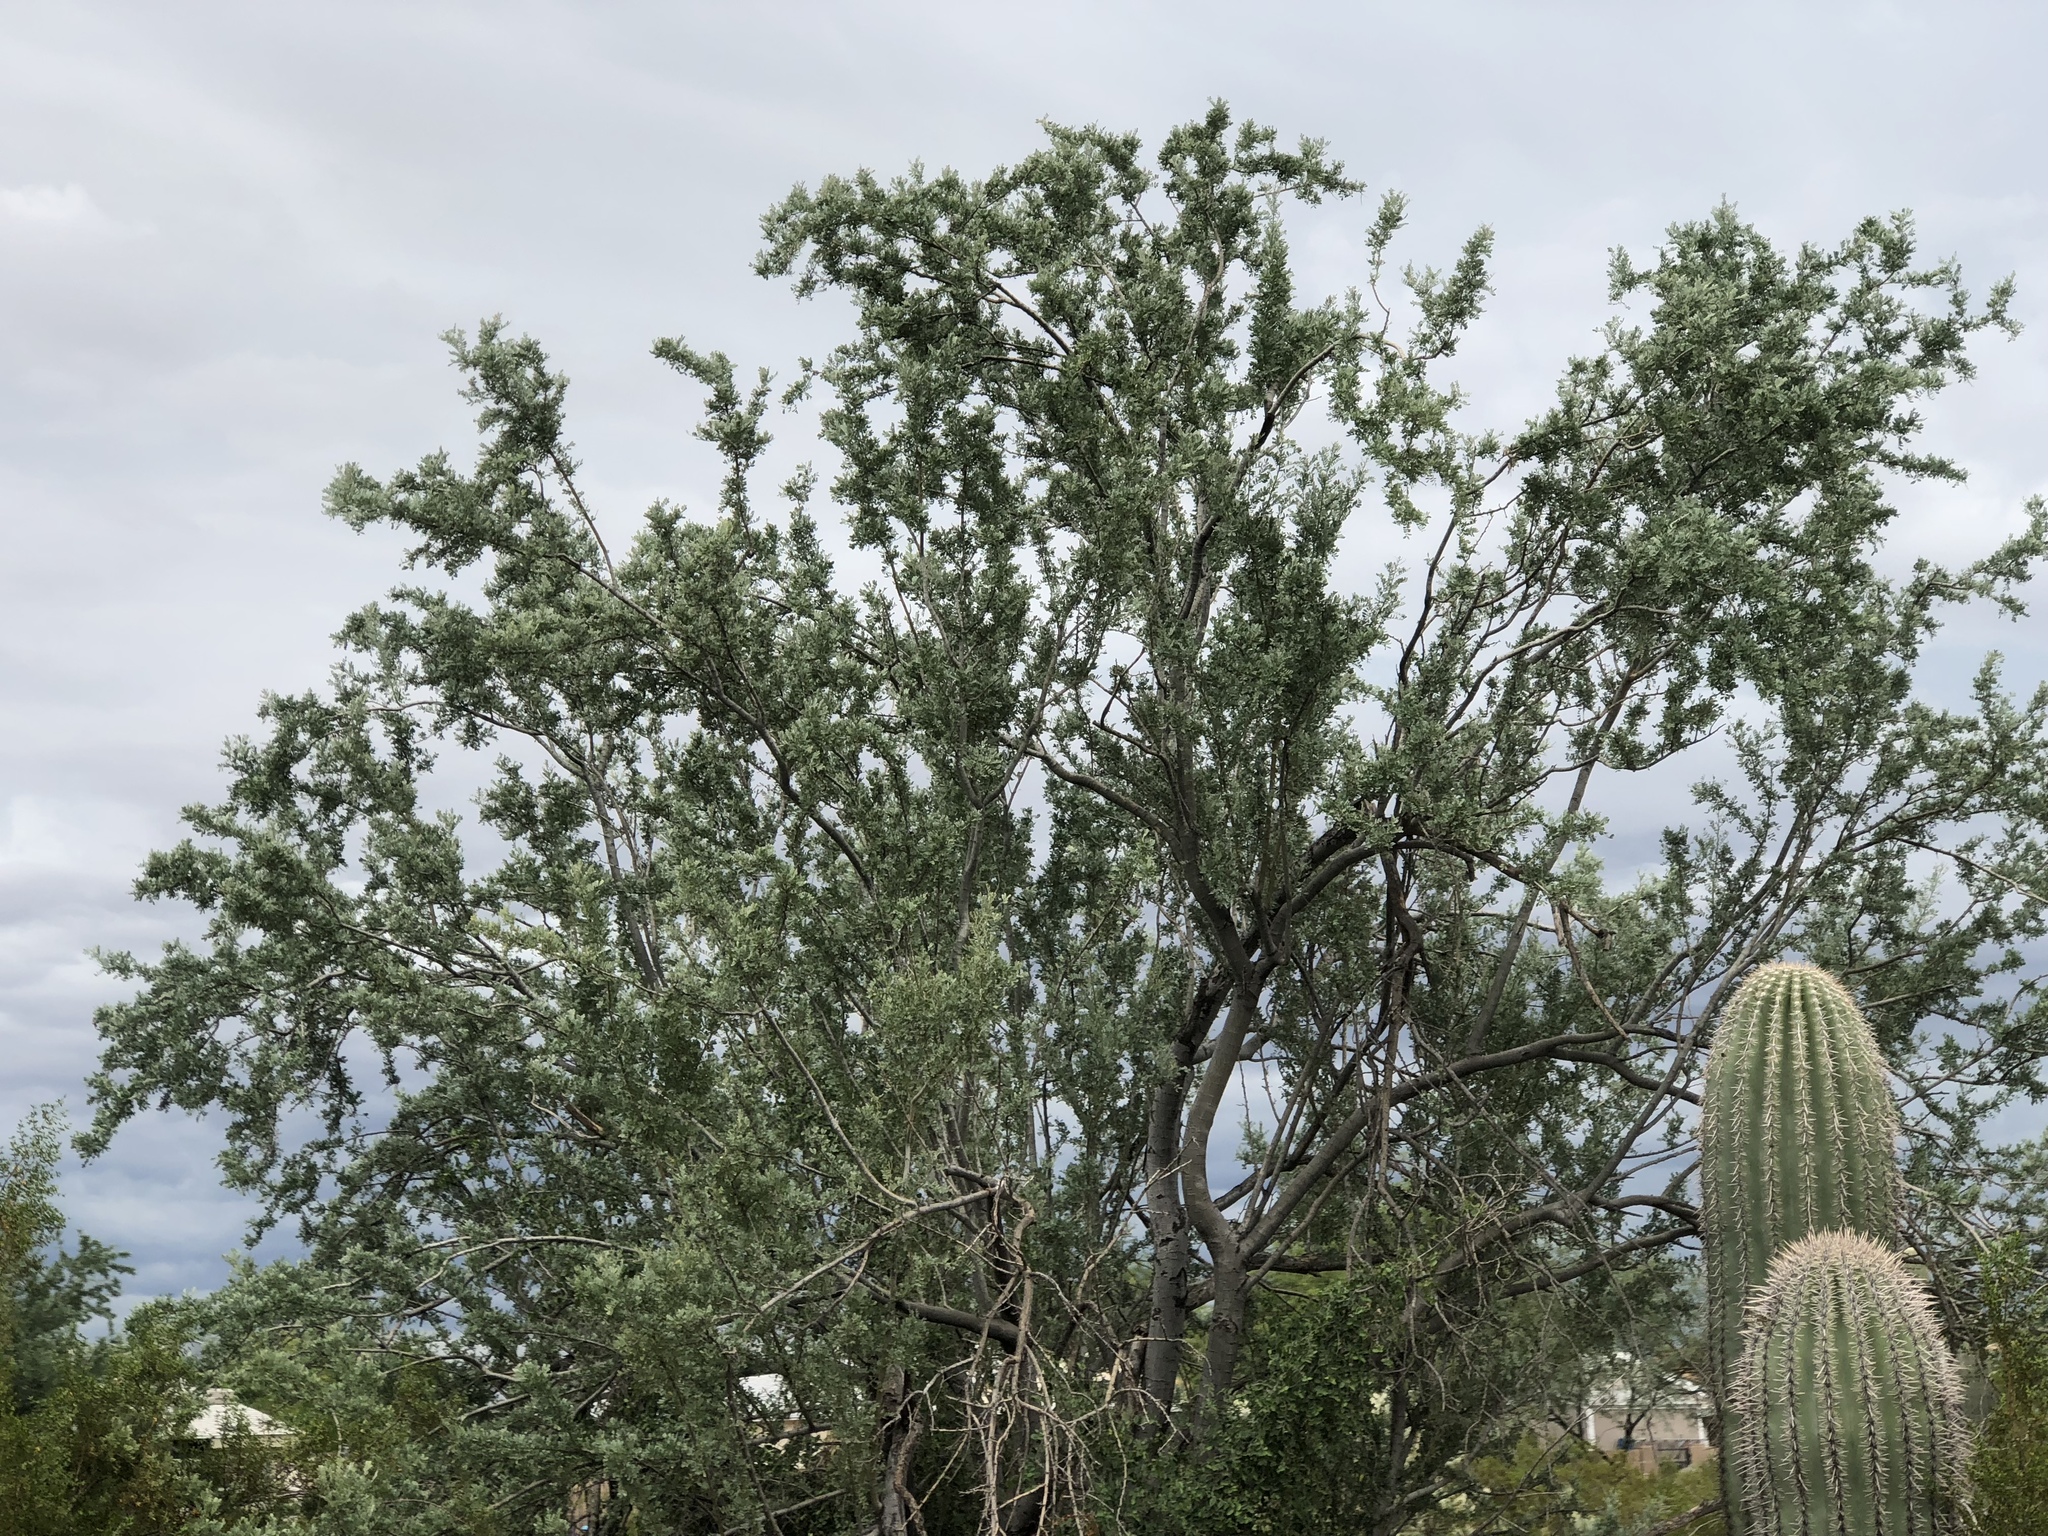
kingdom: Plantae
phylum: Tracheophyta
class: Magnoliopsida
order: Fabales
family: Fabaceae
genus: Olneya
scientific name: Olneya tesota
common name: Desert ironwood
